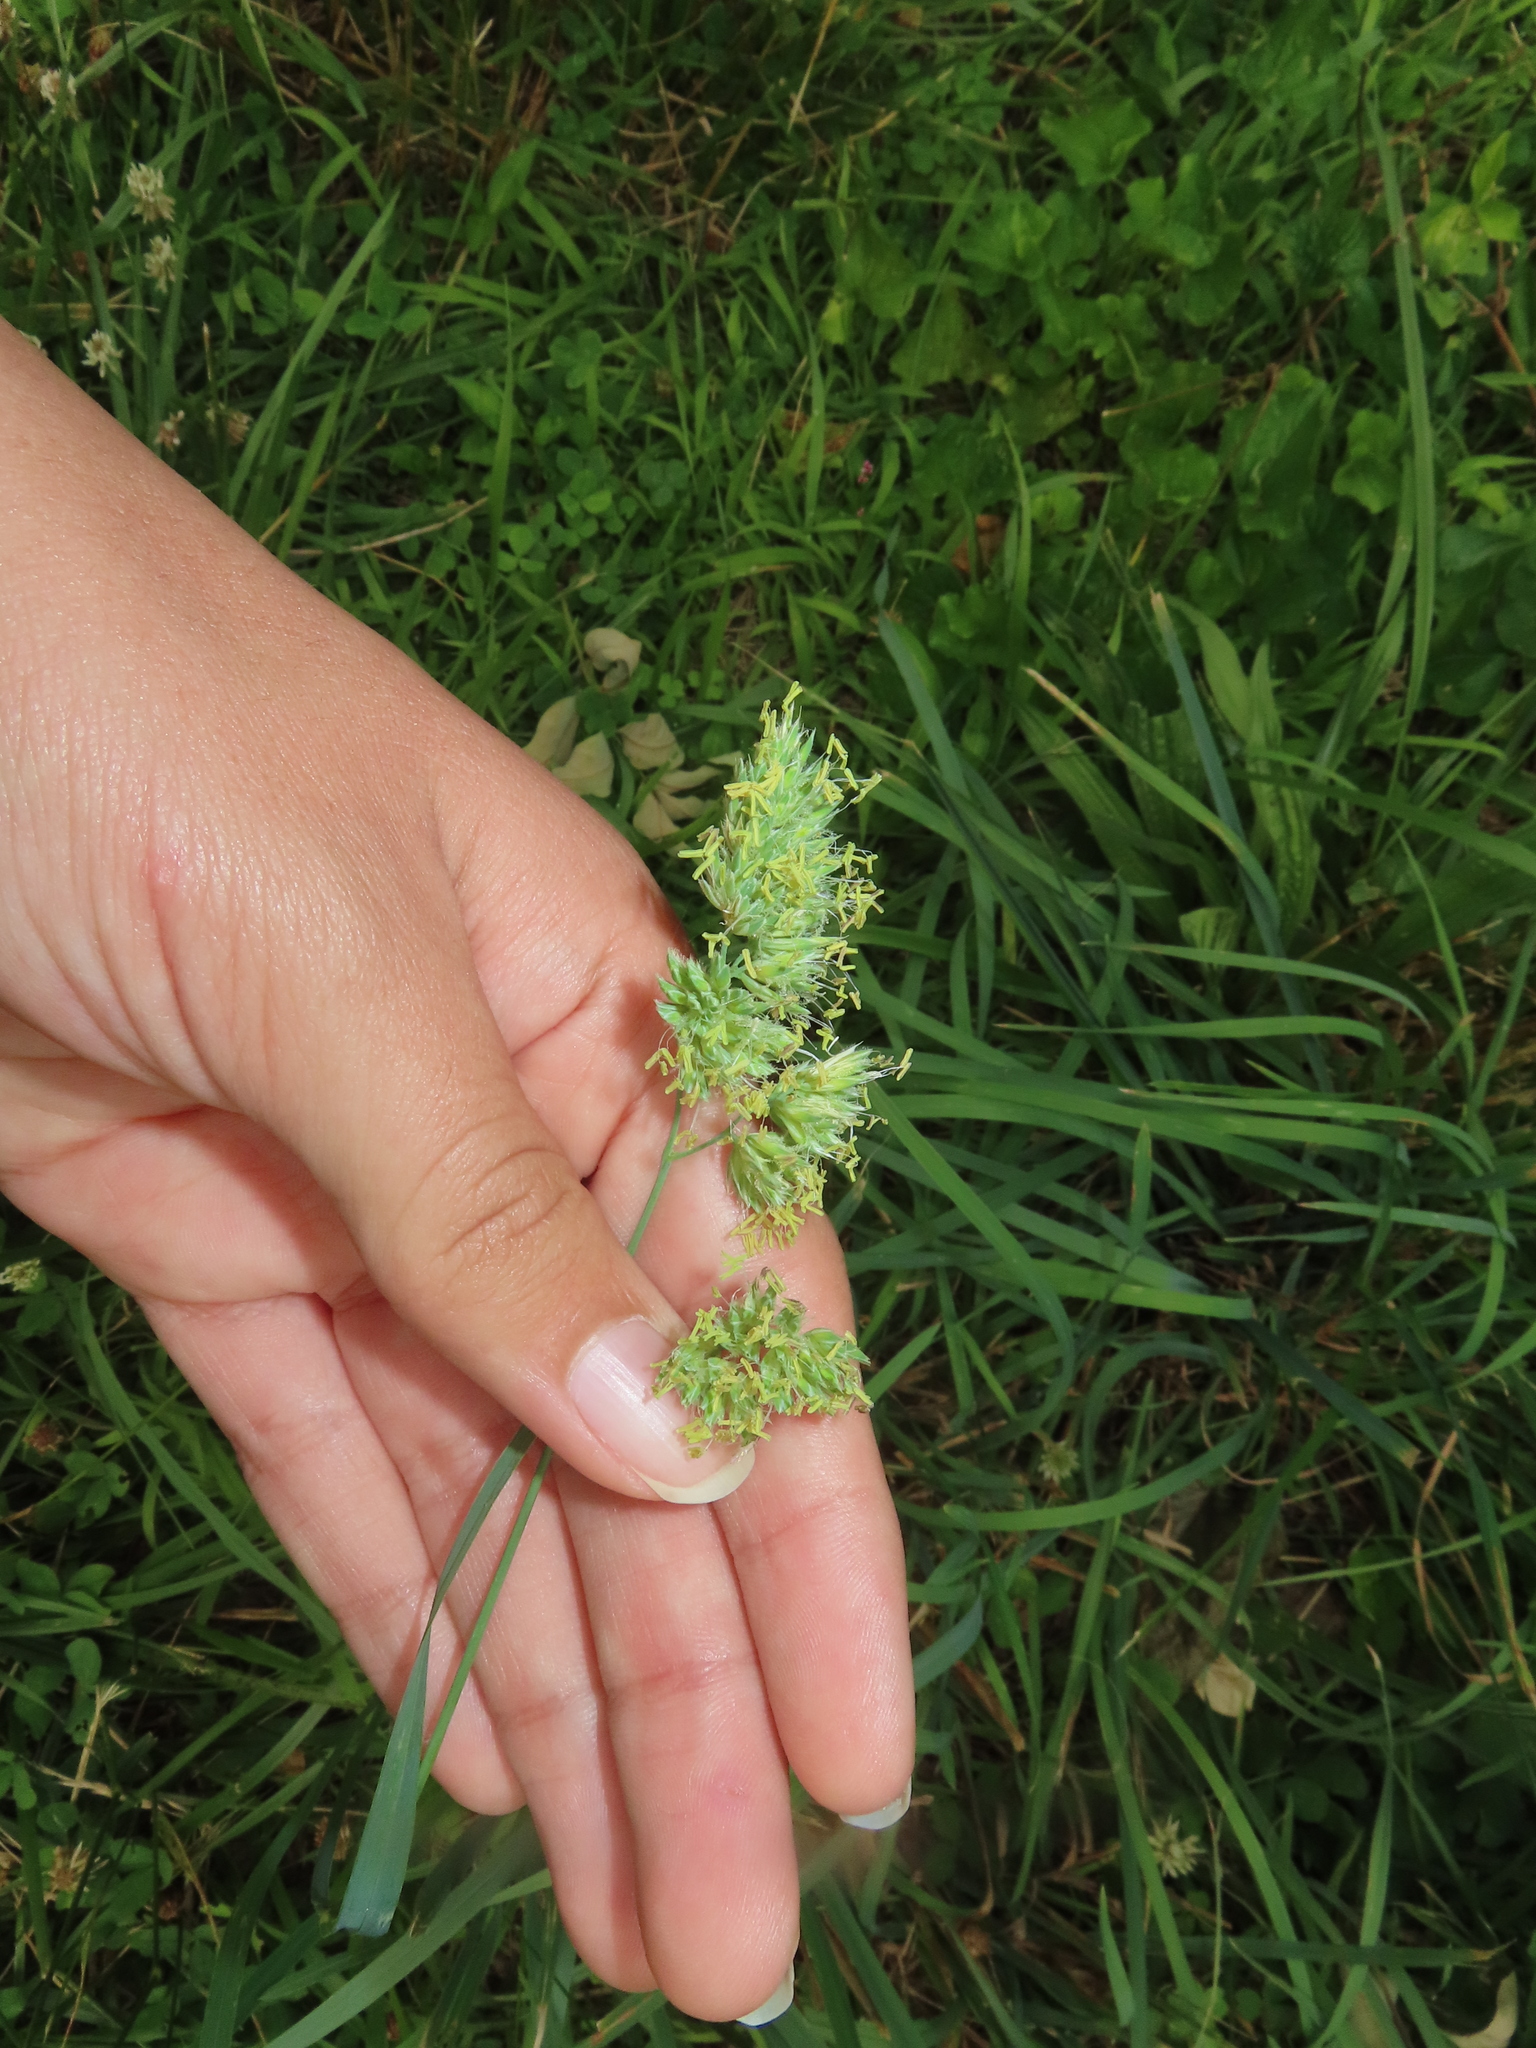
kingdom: Plantae
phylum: Tracheophyta
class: Liliopsida
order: Poales
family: Poaceae
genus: Dactylis
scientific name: Dactylis glomerata
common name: Orchardgrass
